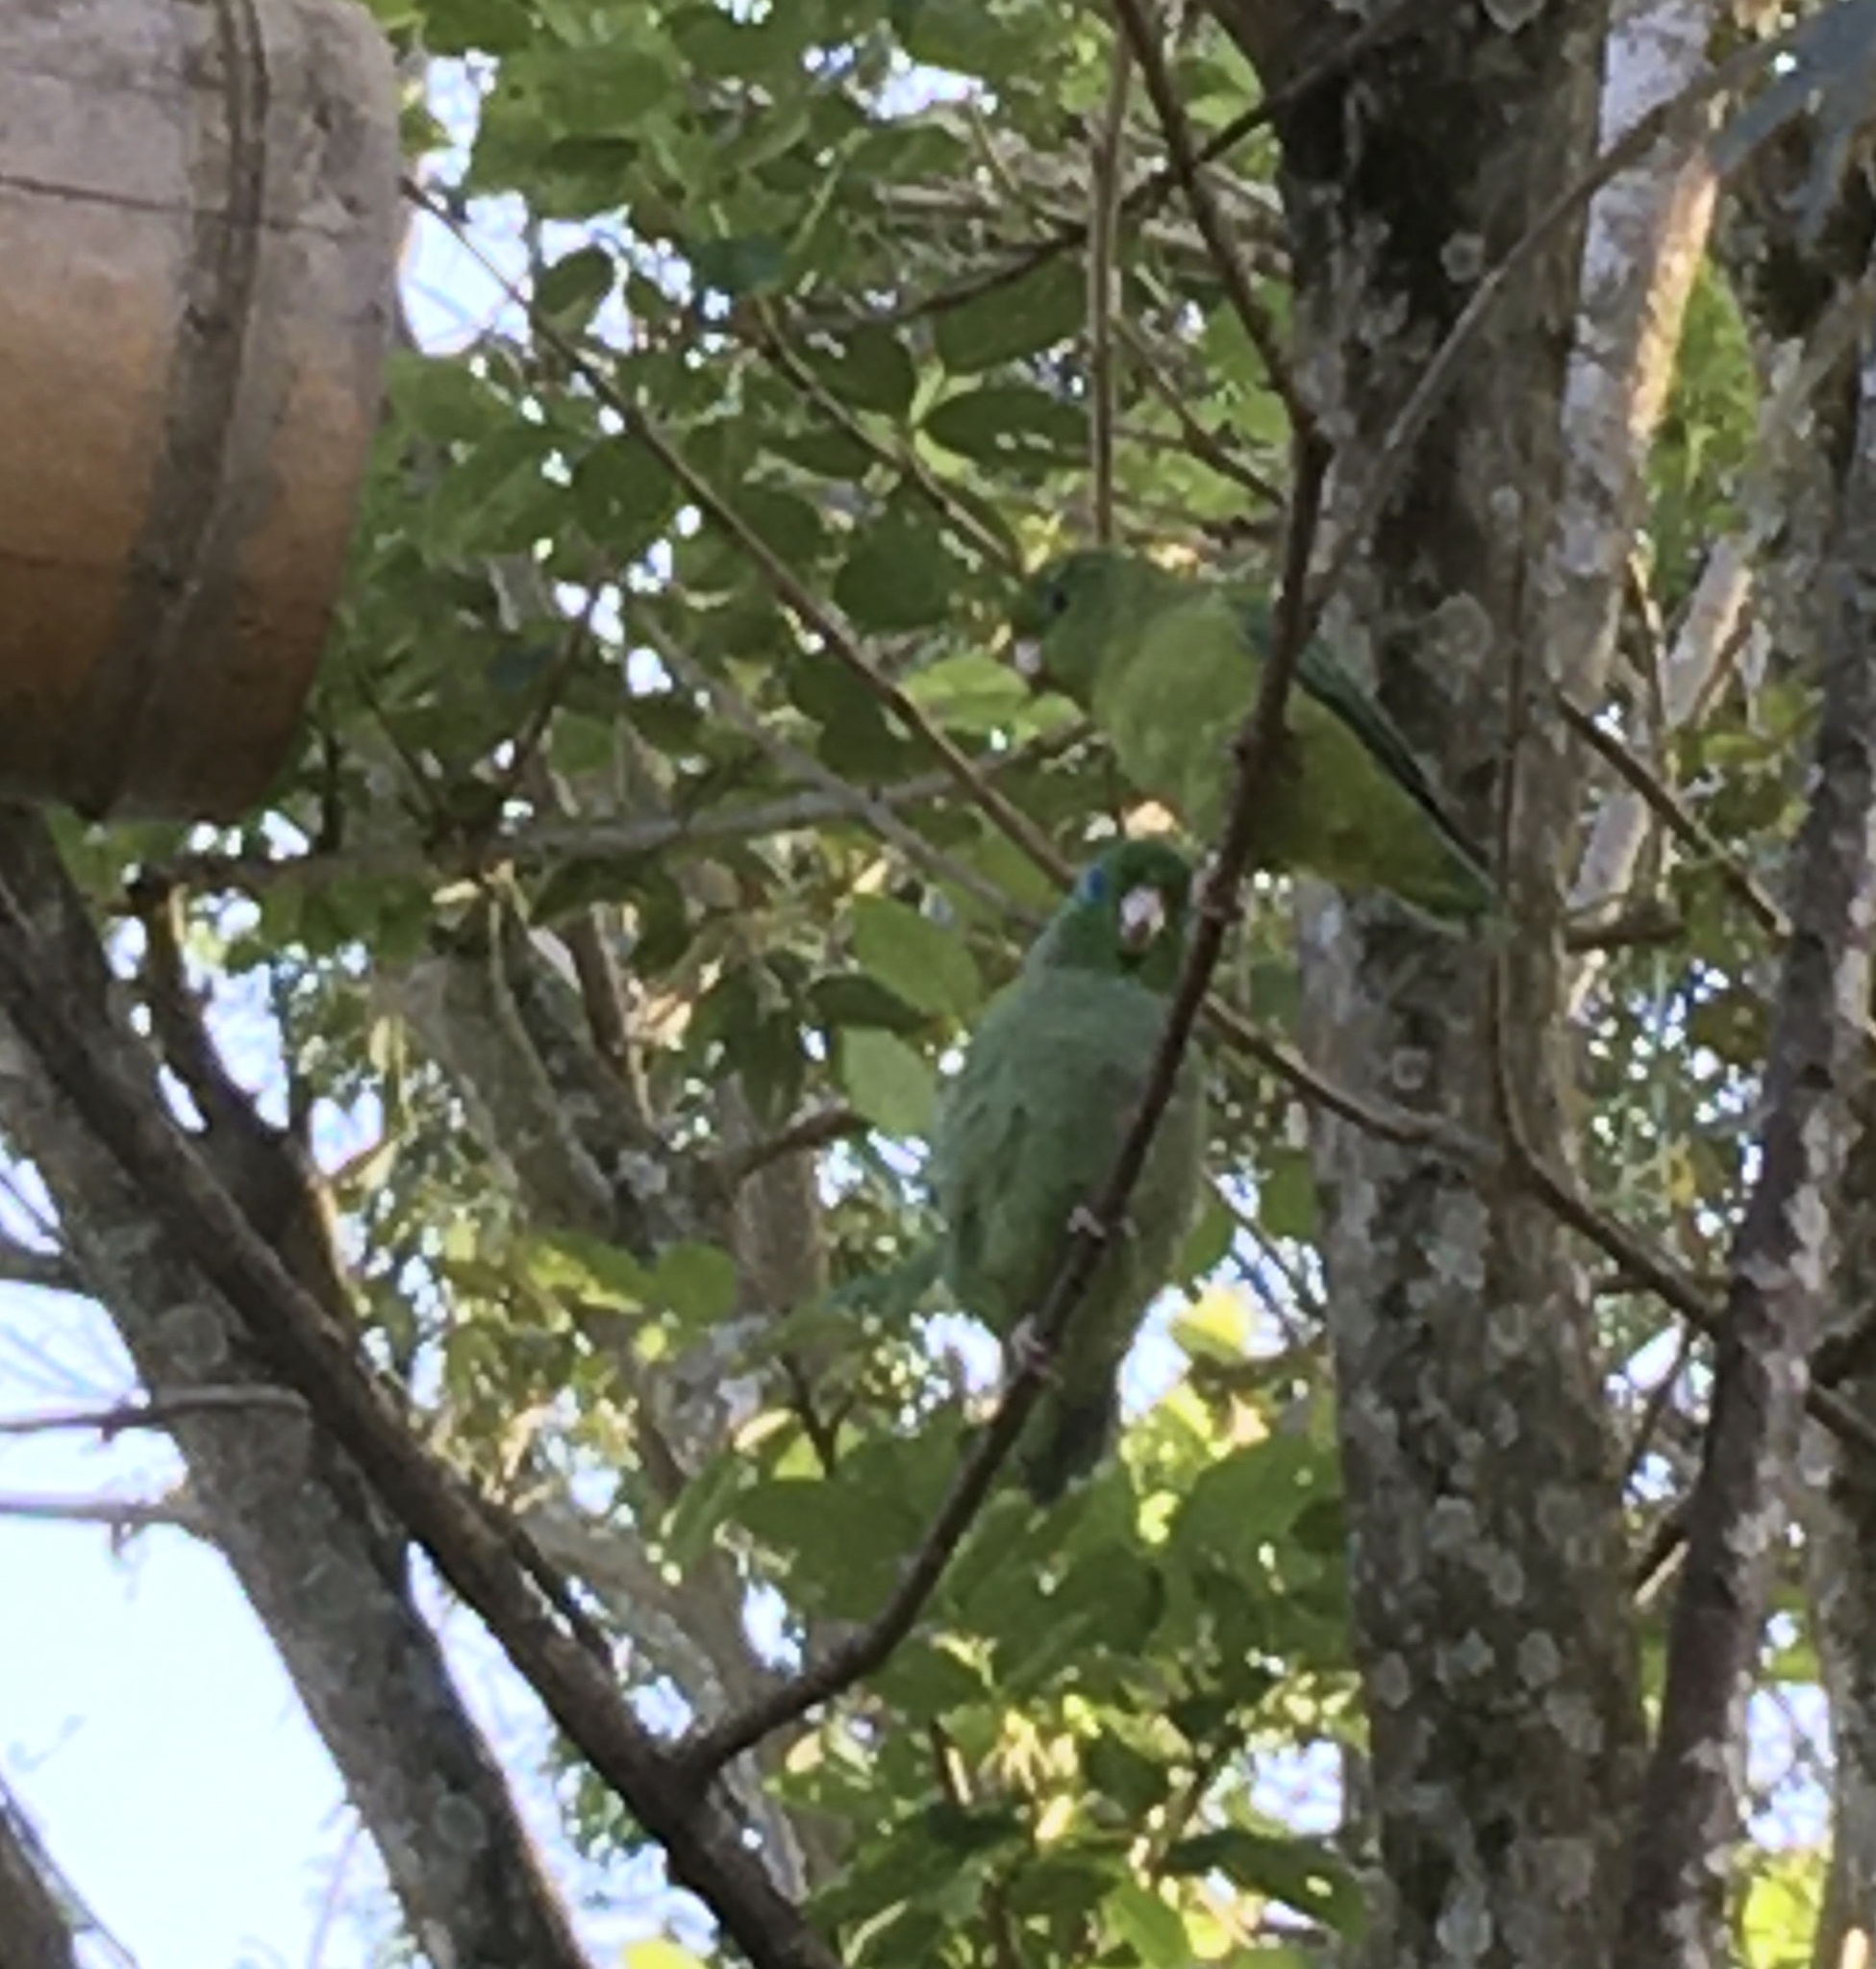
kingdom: Animalia
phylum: Chordata
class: Aves
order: Psittaciformes
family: Psittacidae
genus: Forpus
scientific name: Forpus conspicillatus
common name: Spectacled parrotlet
